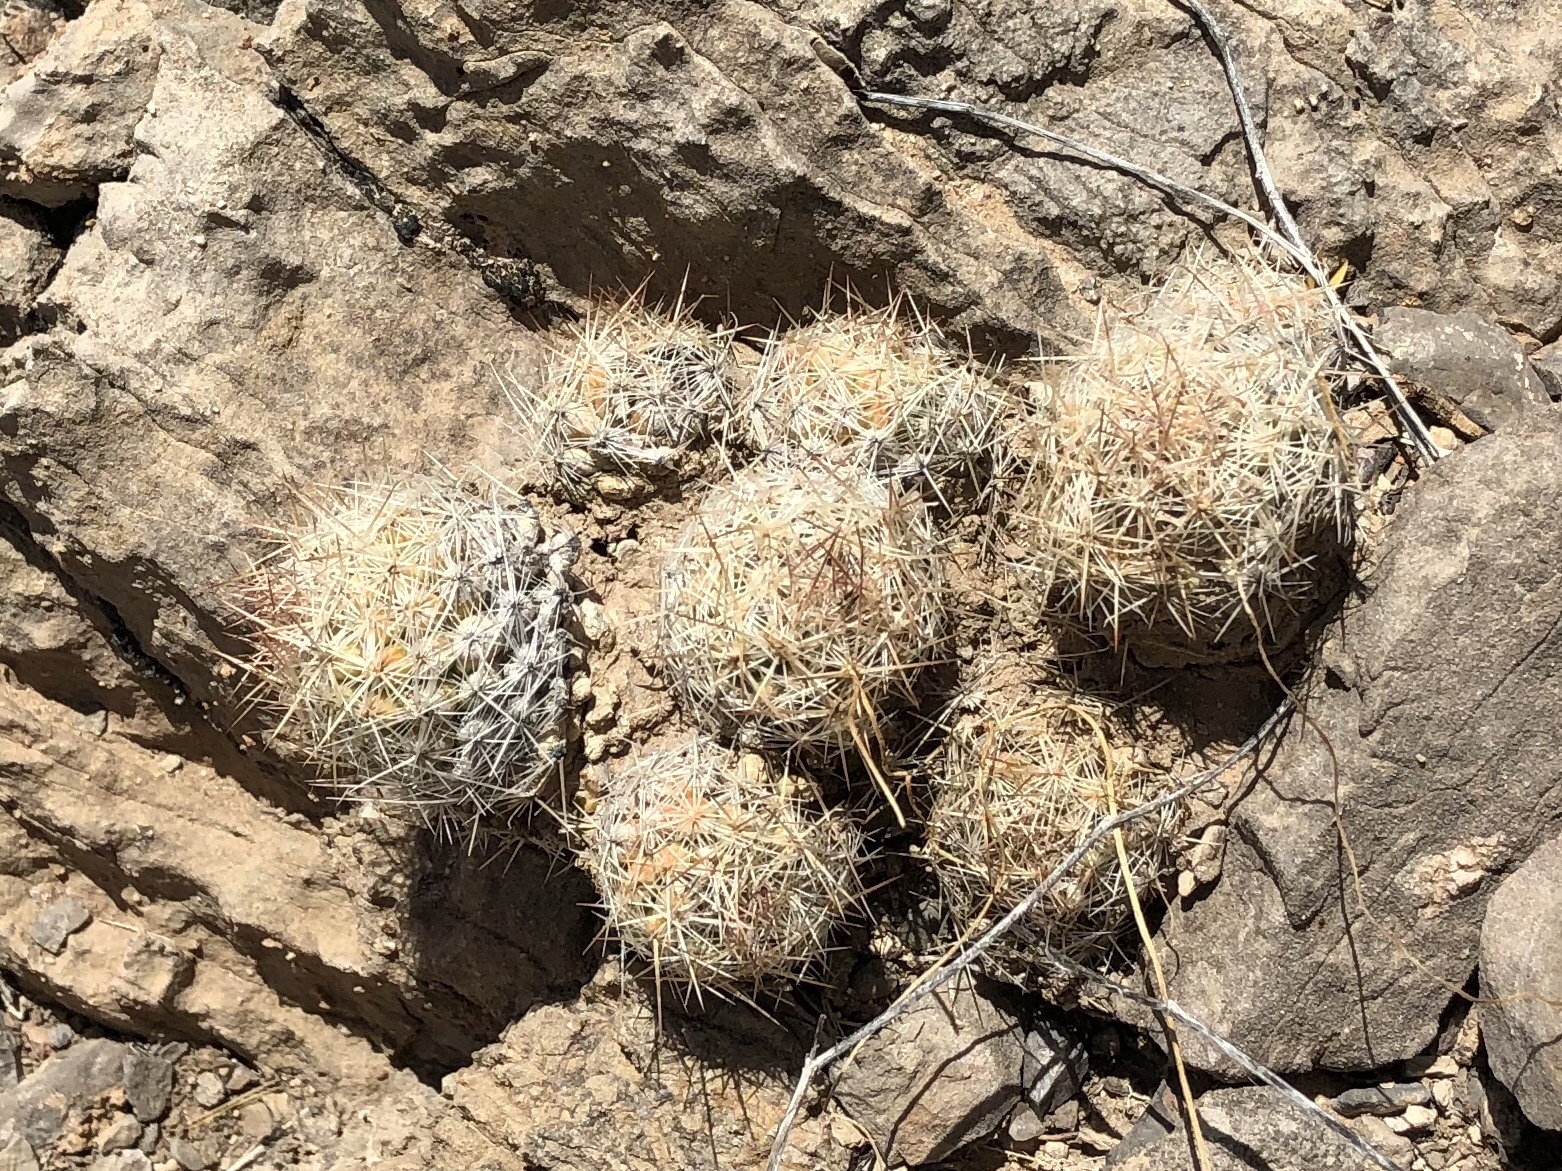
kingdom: Plantae
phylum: Tracheophyta
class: Magnoliopsida
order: Caryophyllales
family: Cactaceae
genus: Pelecyphora
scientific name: Pelecyphora tuberculosa
